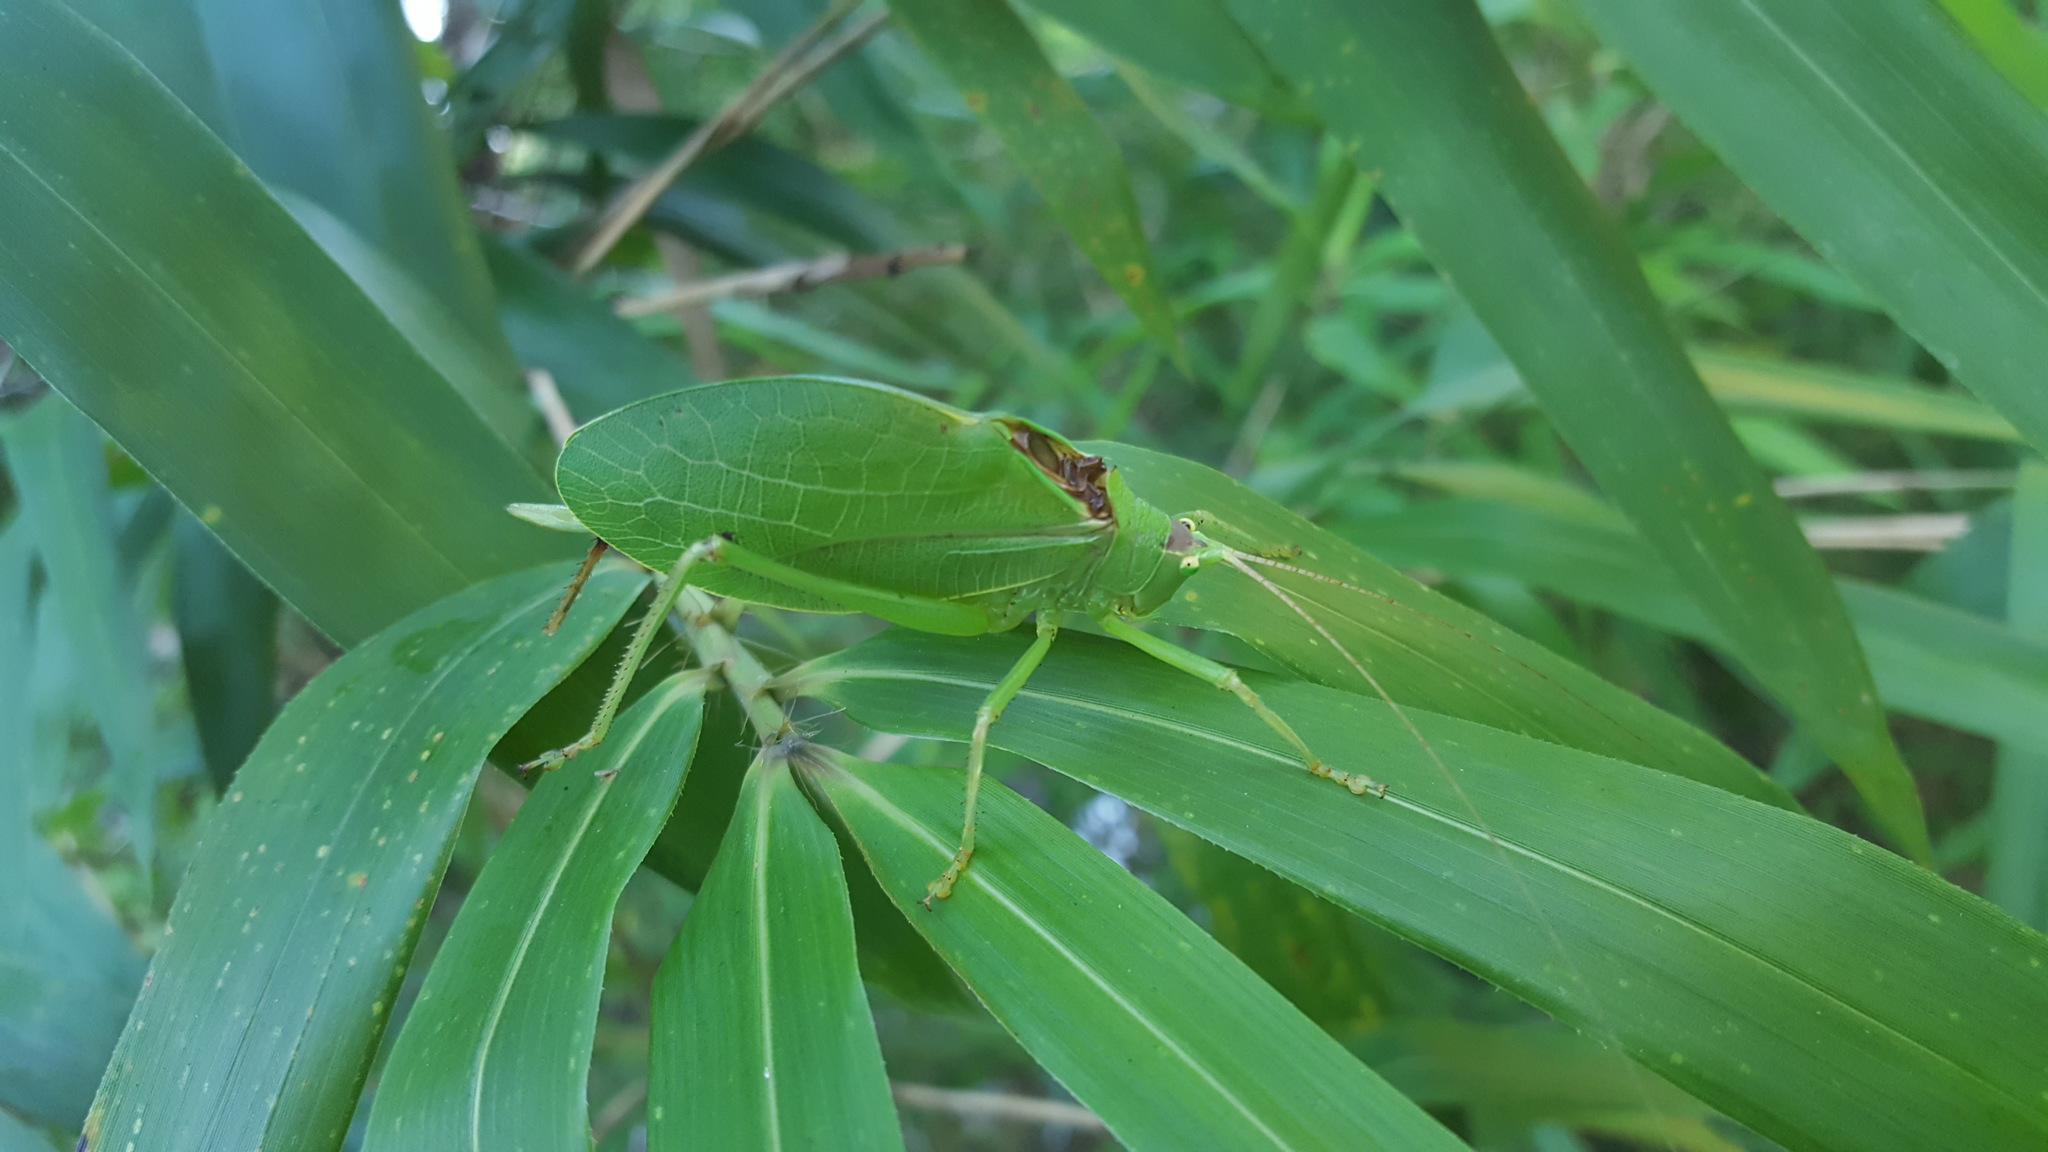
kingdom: Animalia
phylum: Arthropoda
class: Insecta
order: Orthoptera
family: Tettigoniidae
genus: Pterophylla
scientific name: Pterophylla camellifolia
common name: Common true katydid
